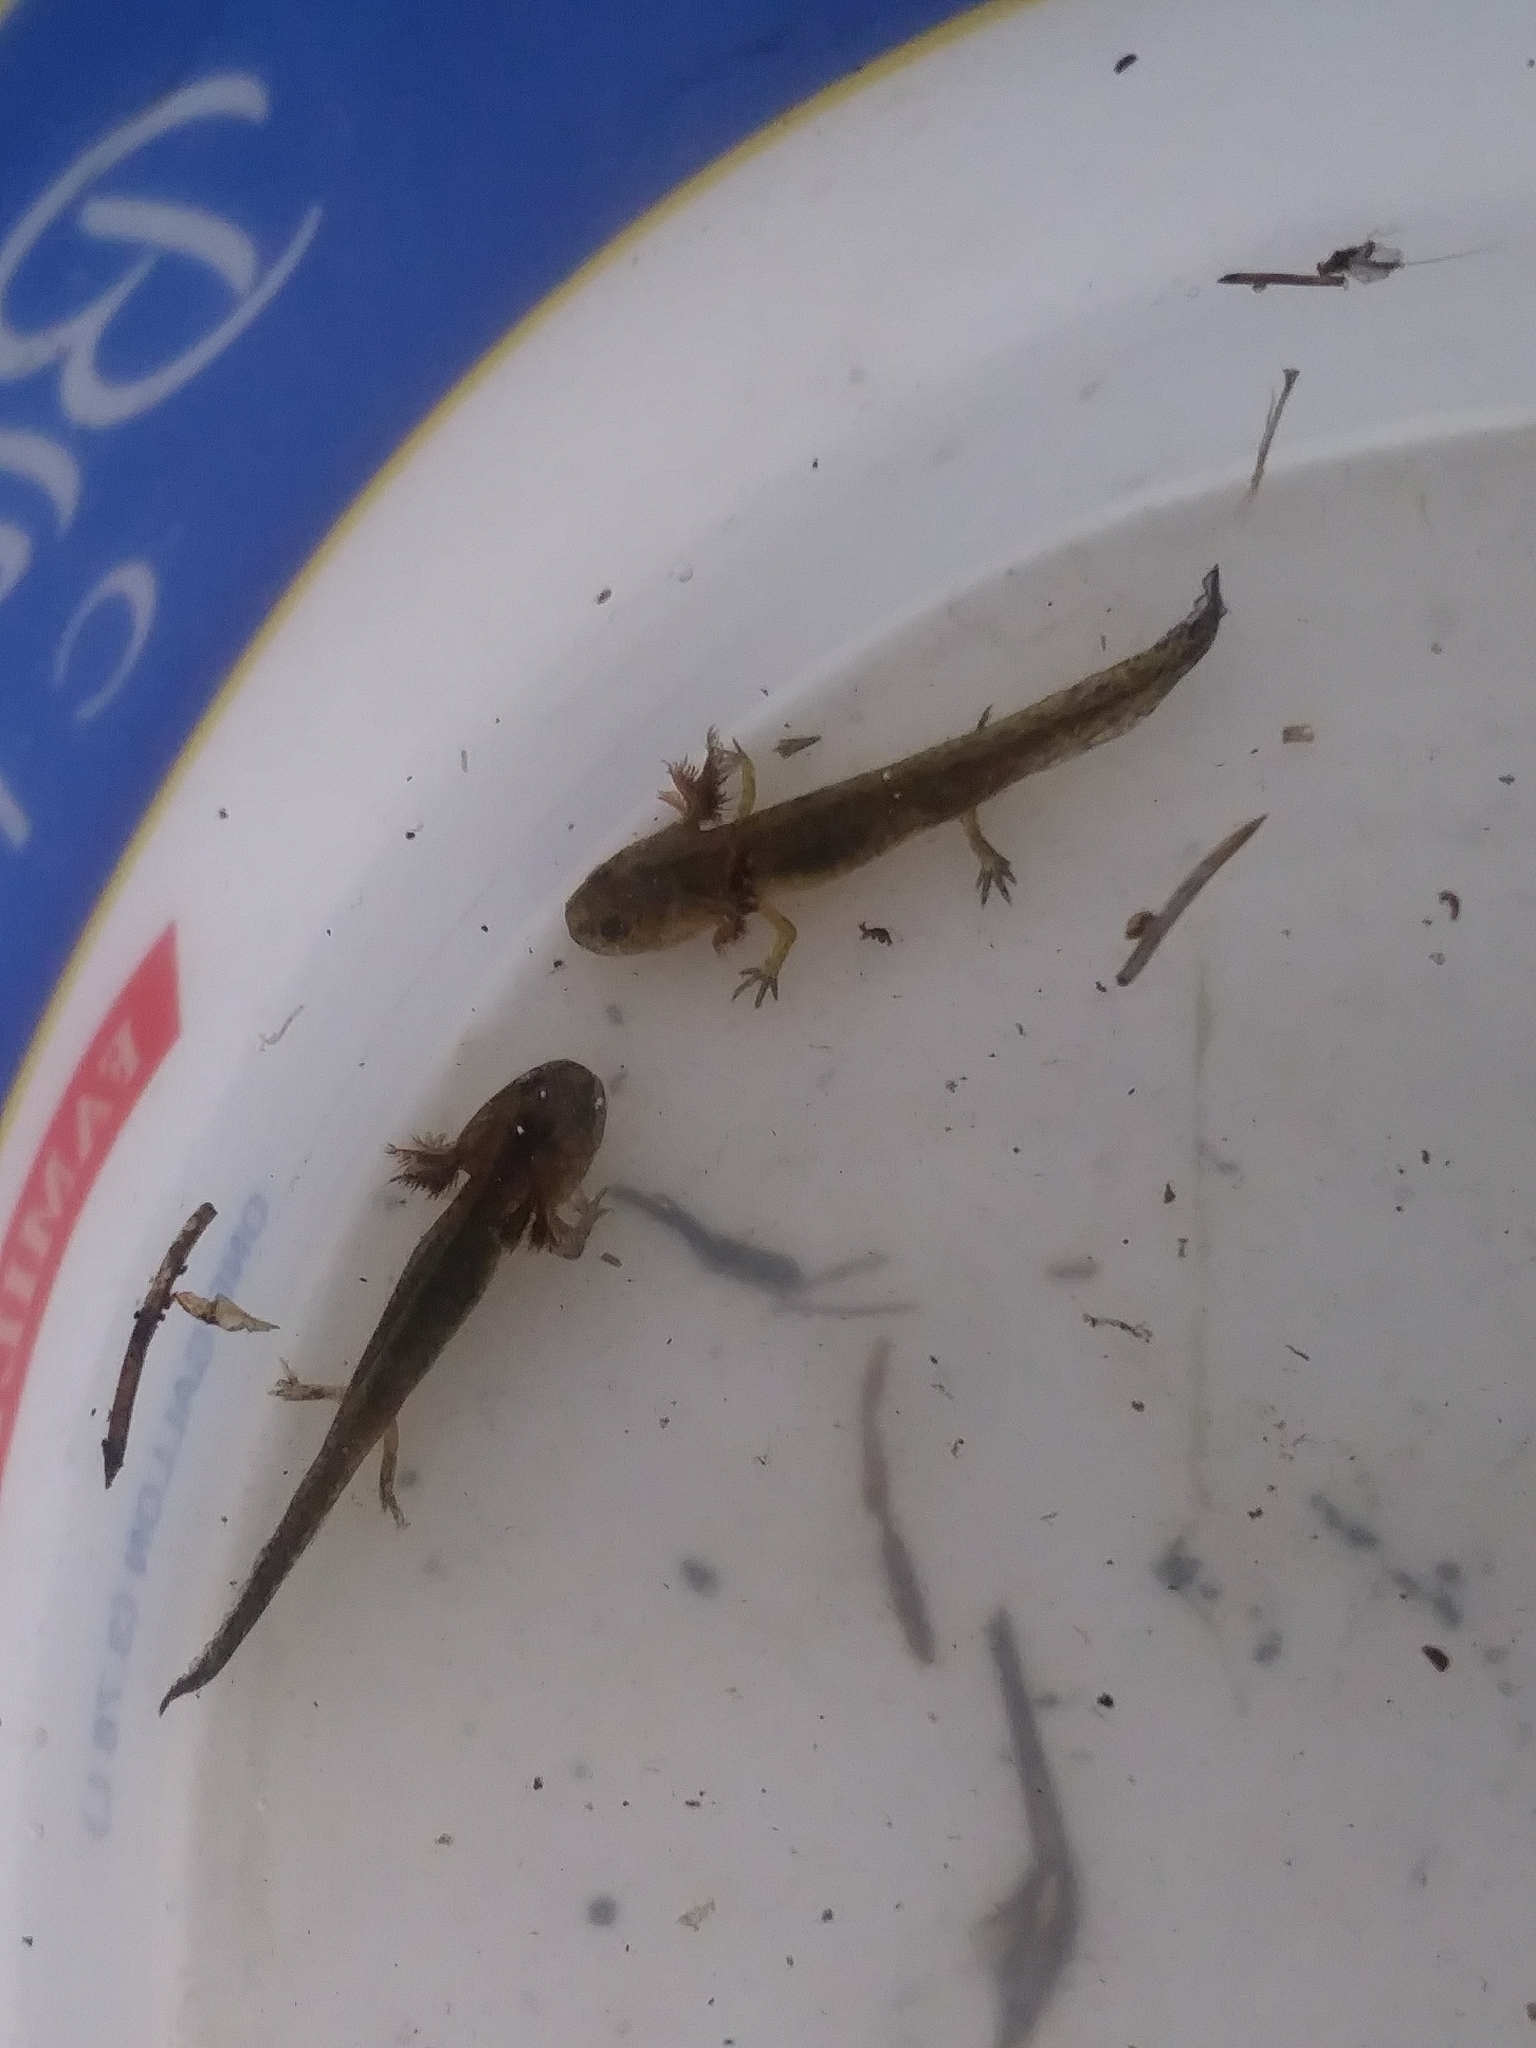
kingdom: Animalia
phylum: Chordata
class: Amphibia
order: Caudata
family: Ambystomatidae
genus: Ambystoma
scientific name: Ambystoma macrodactylum
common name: Long-toed salamander
